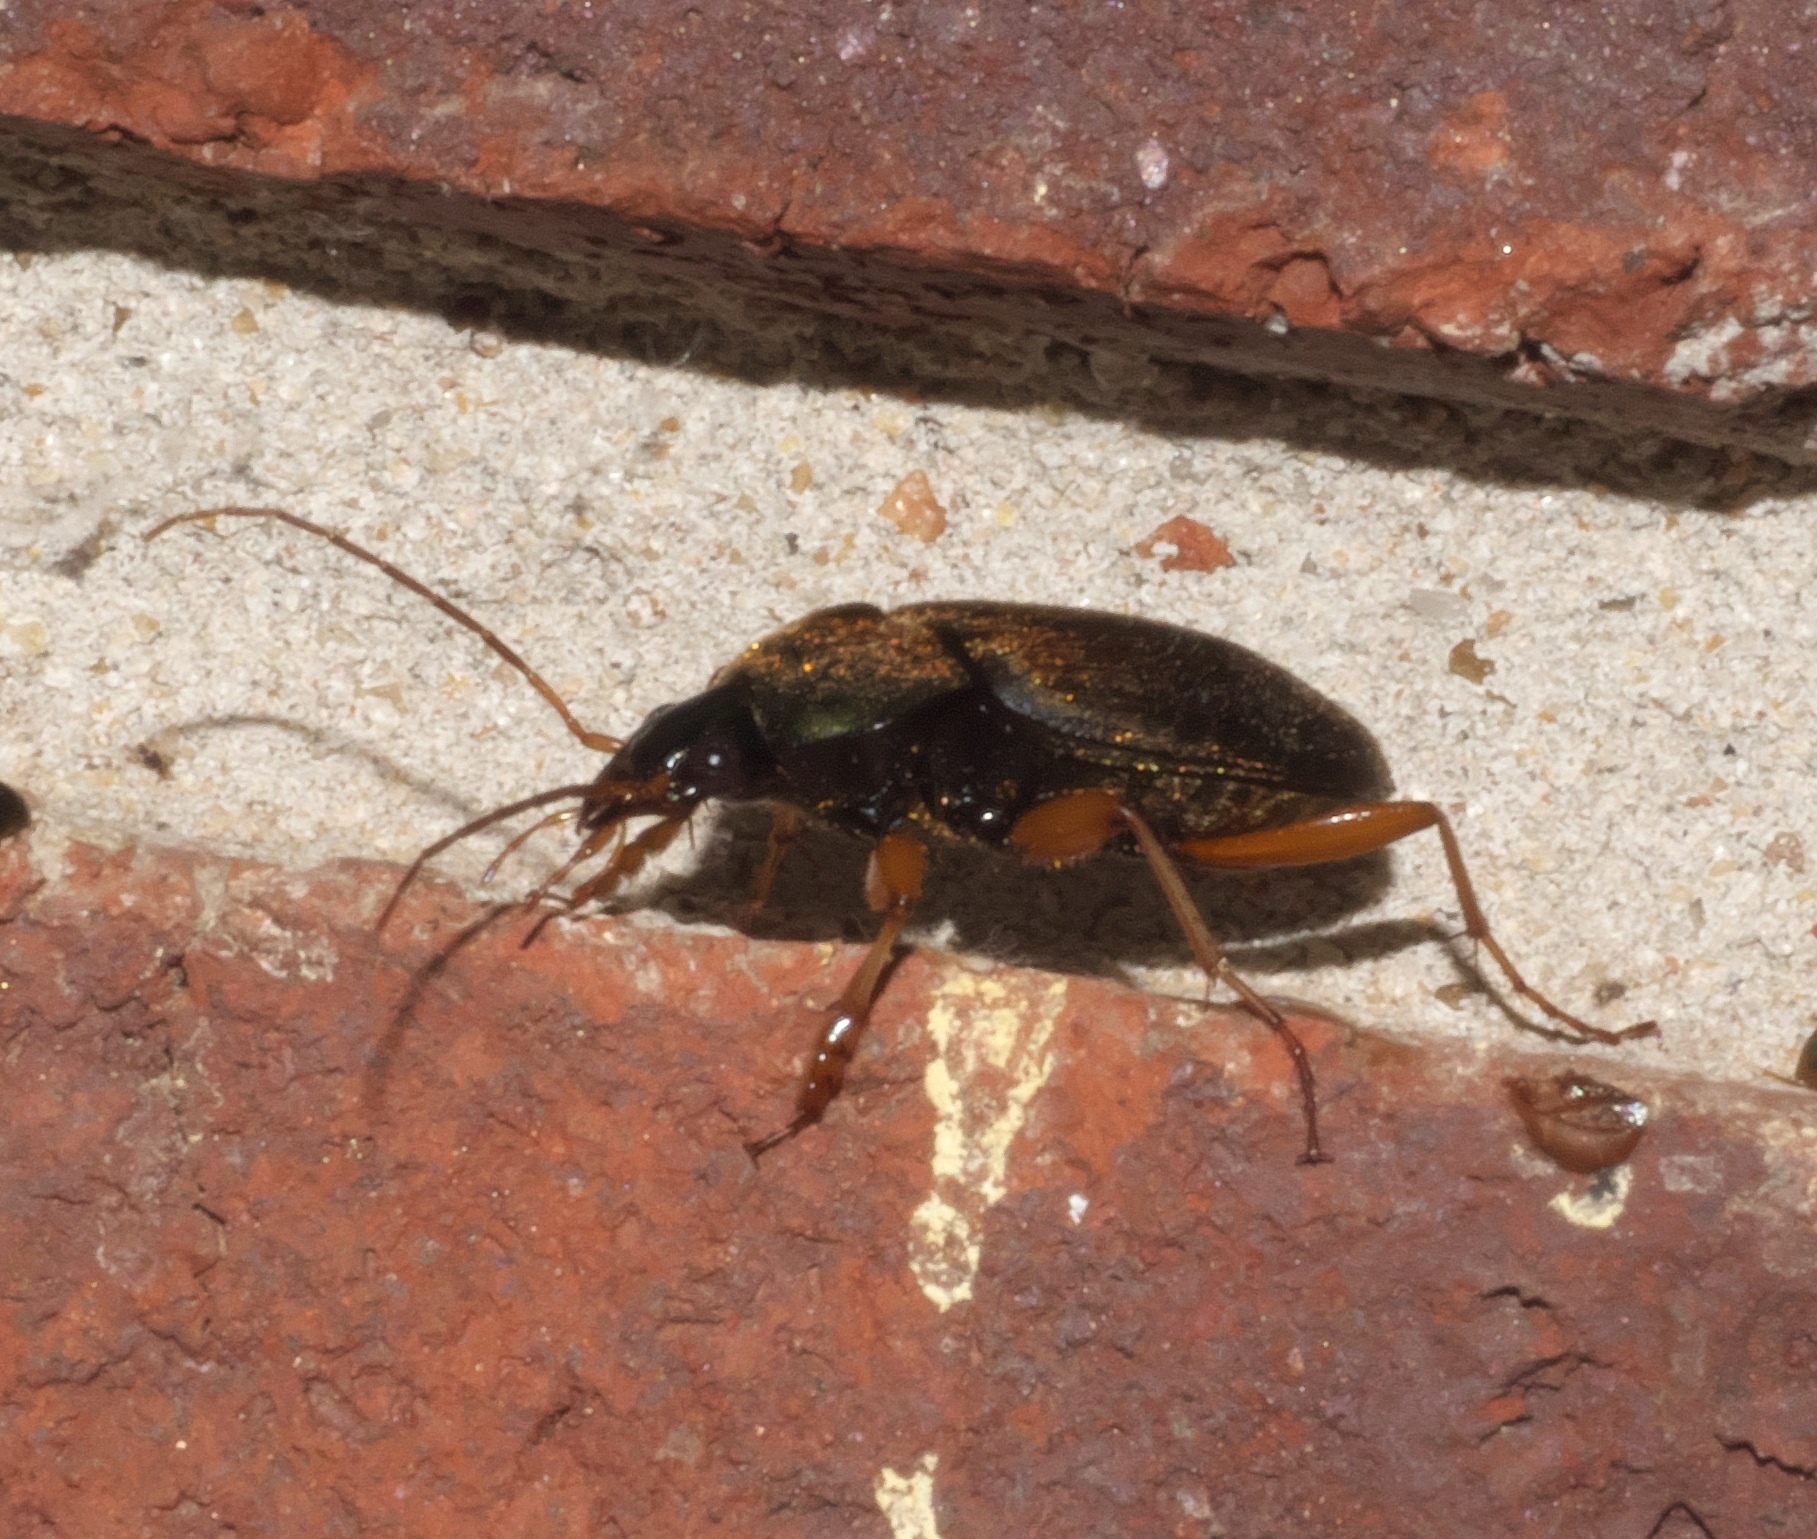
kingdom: Animalia
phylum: Arthropoda
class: Insecta
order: Coleoptera
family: Carabidae
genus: Chlaenius
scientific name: Chlaenius impunctifrons
